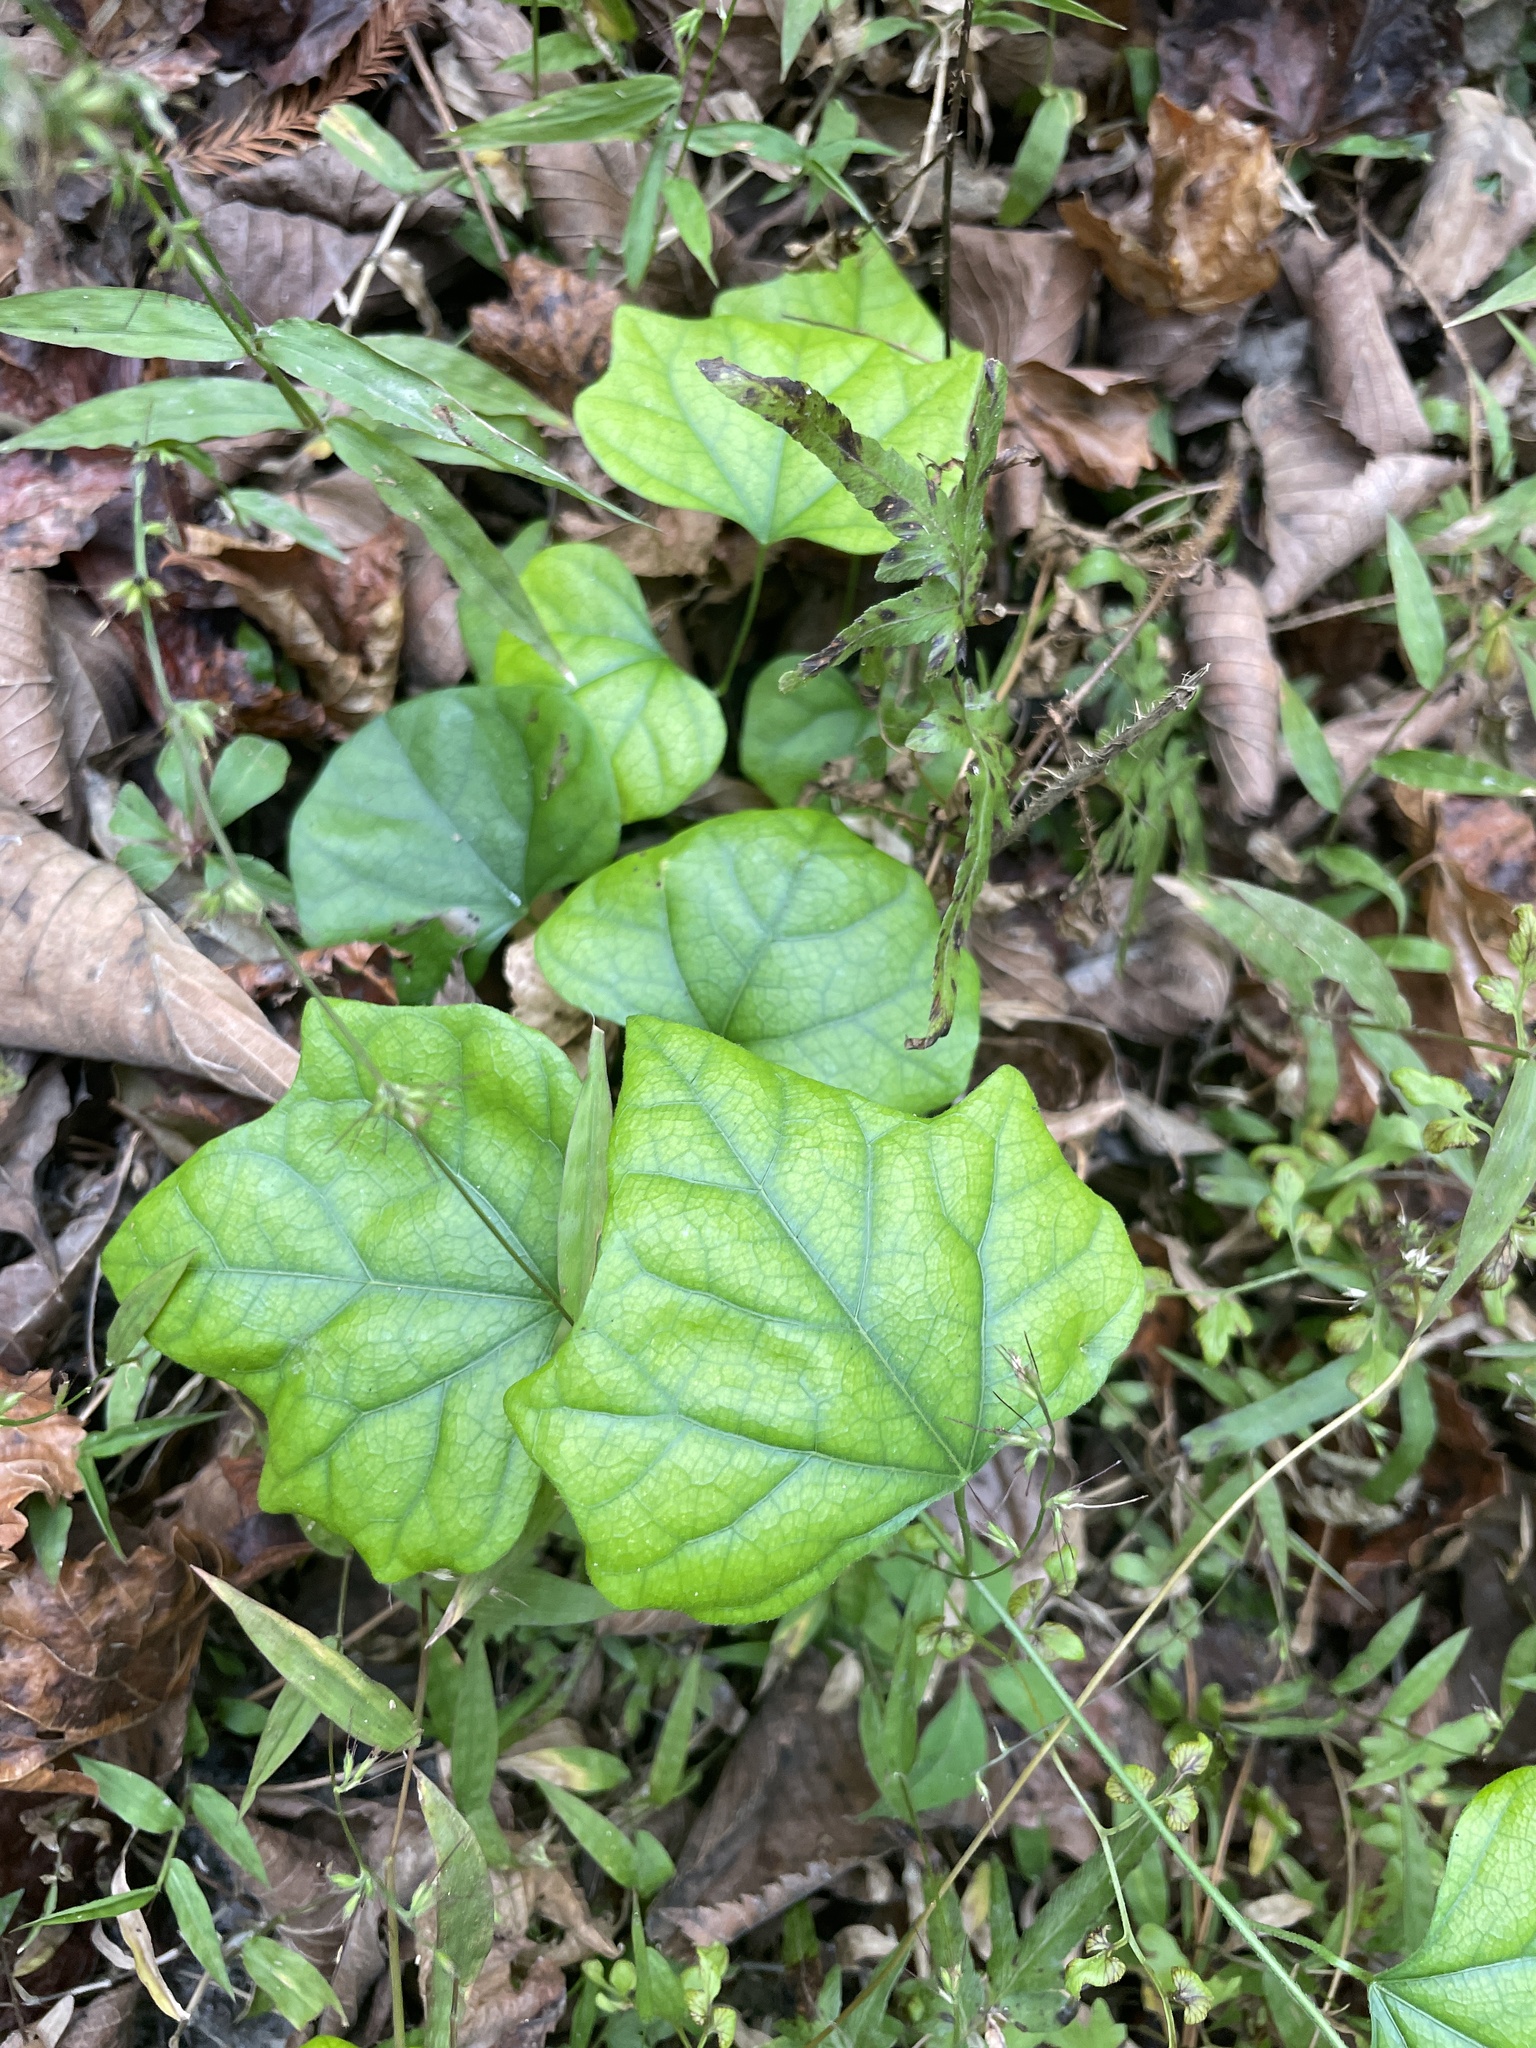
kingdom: Plantae
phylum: Tracheophyta
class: Magnoliopsida
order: Ranunculales
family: Menispermaceae
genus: Cocculus
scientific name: Cocculus carolinus
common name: Carolina moonseed
